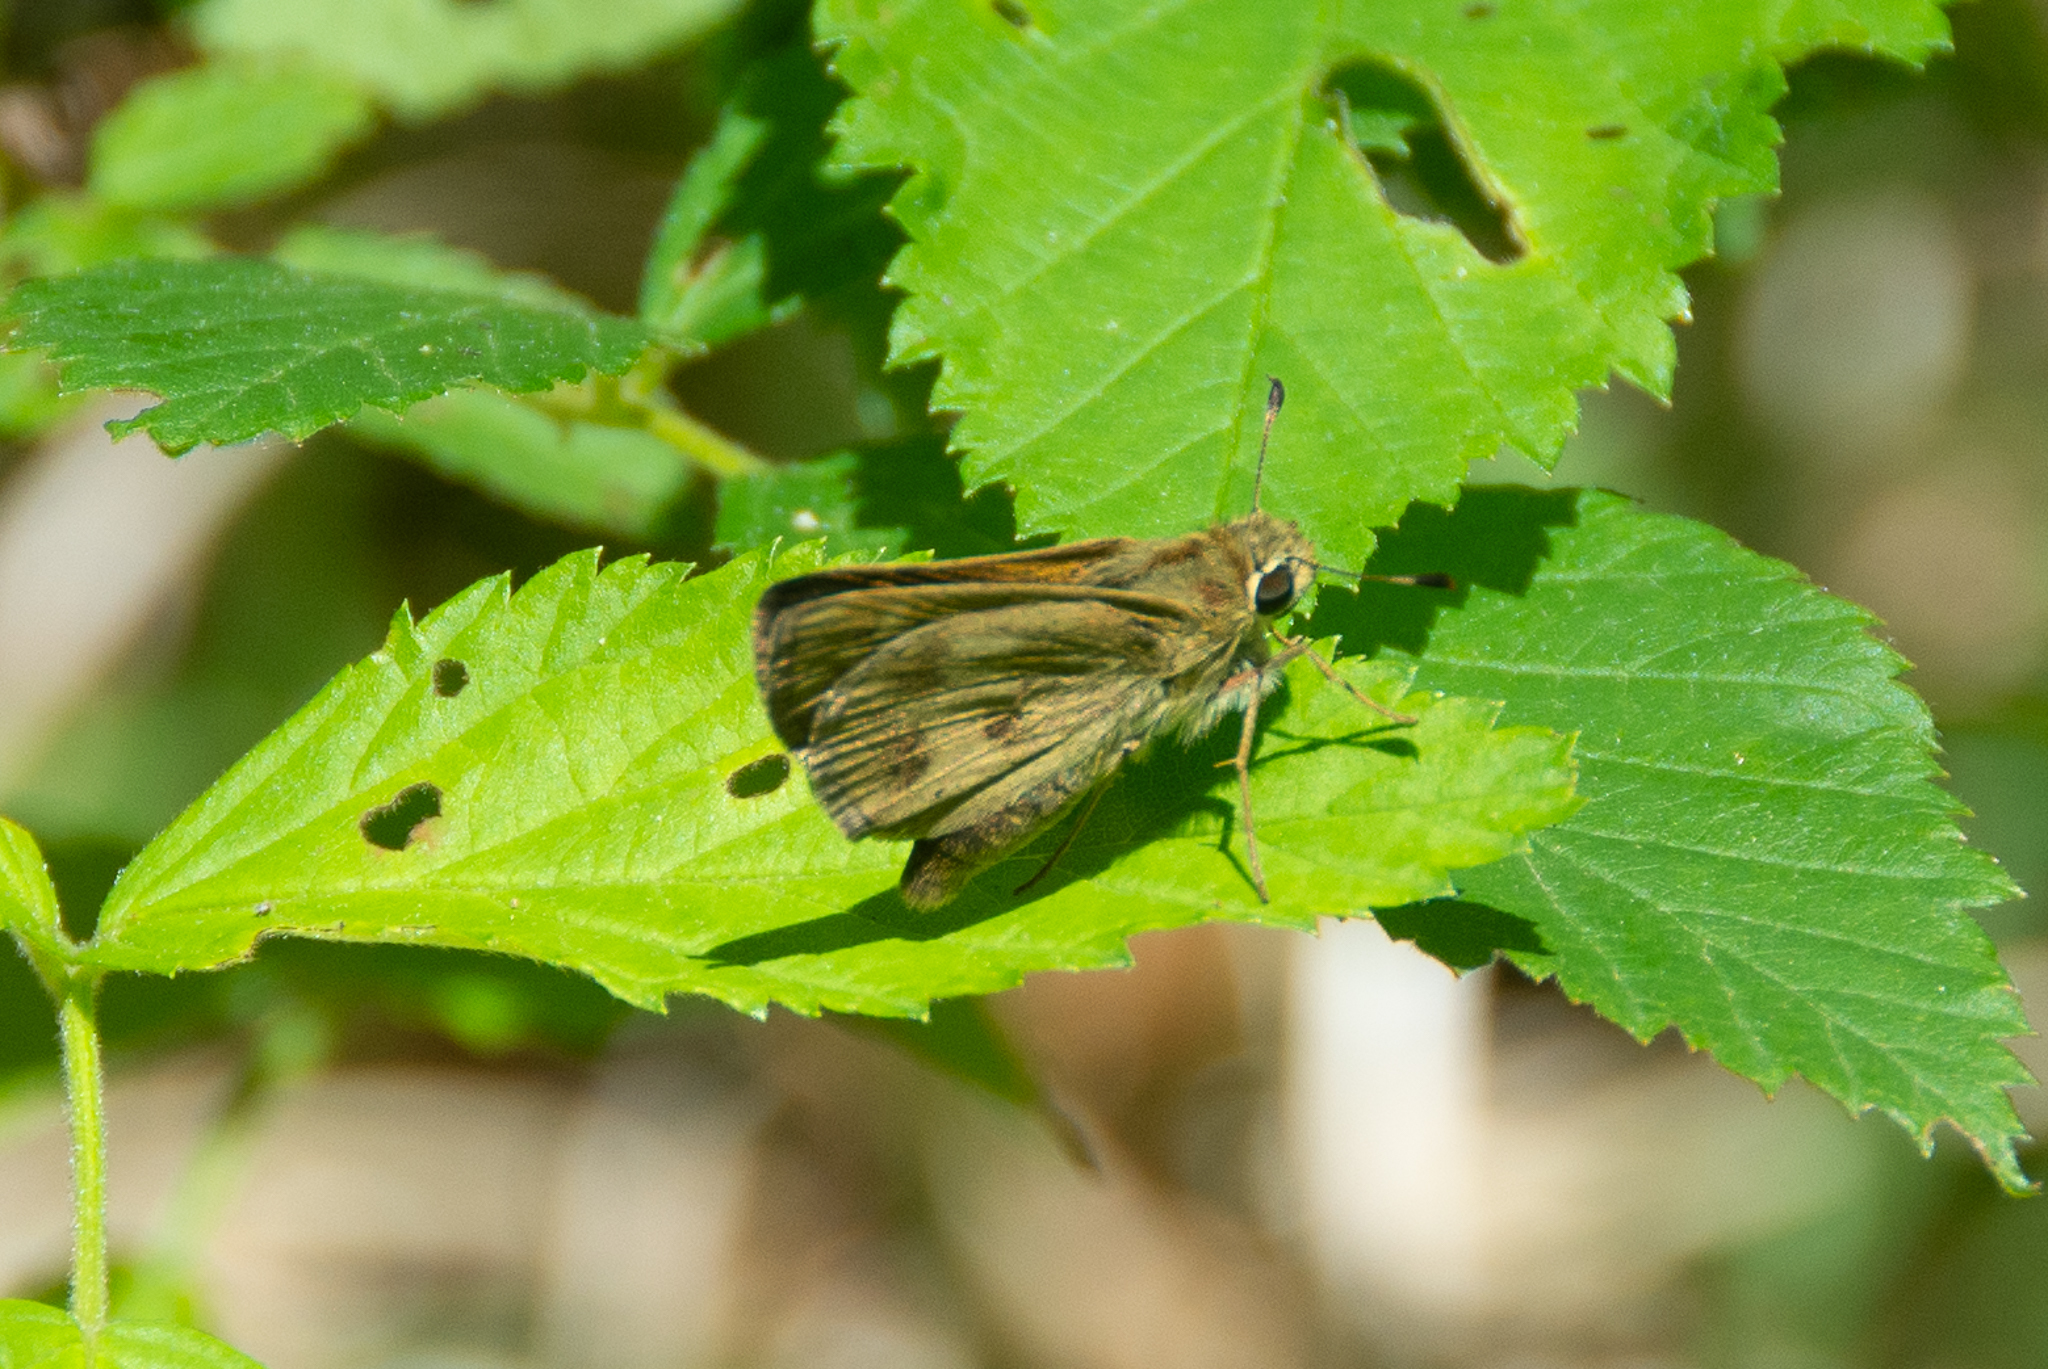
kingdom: Animalia
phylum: Arthropoda
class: Insecta
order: Lepidoptera
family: Hesperiidae
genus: Polites
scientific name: Polites vibex
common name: Whirlabout
